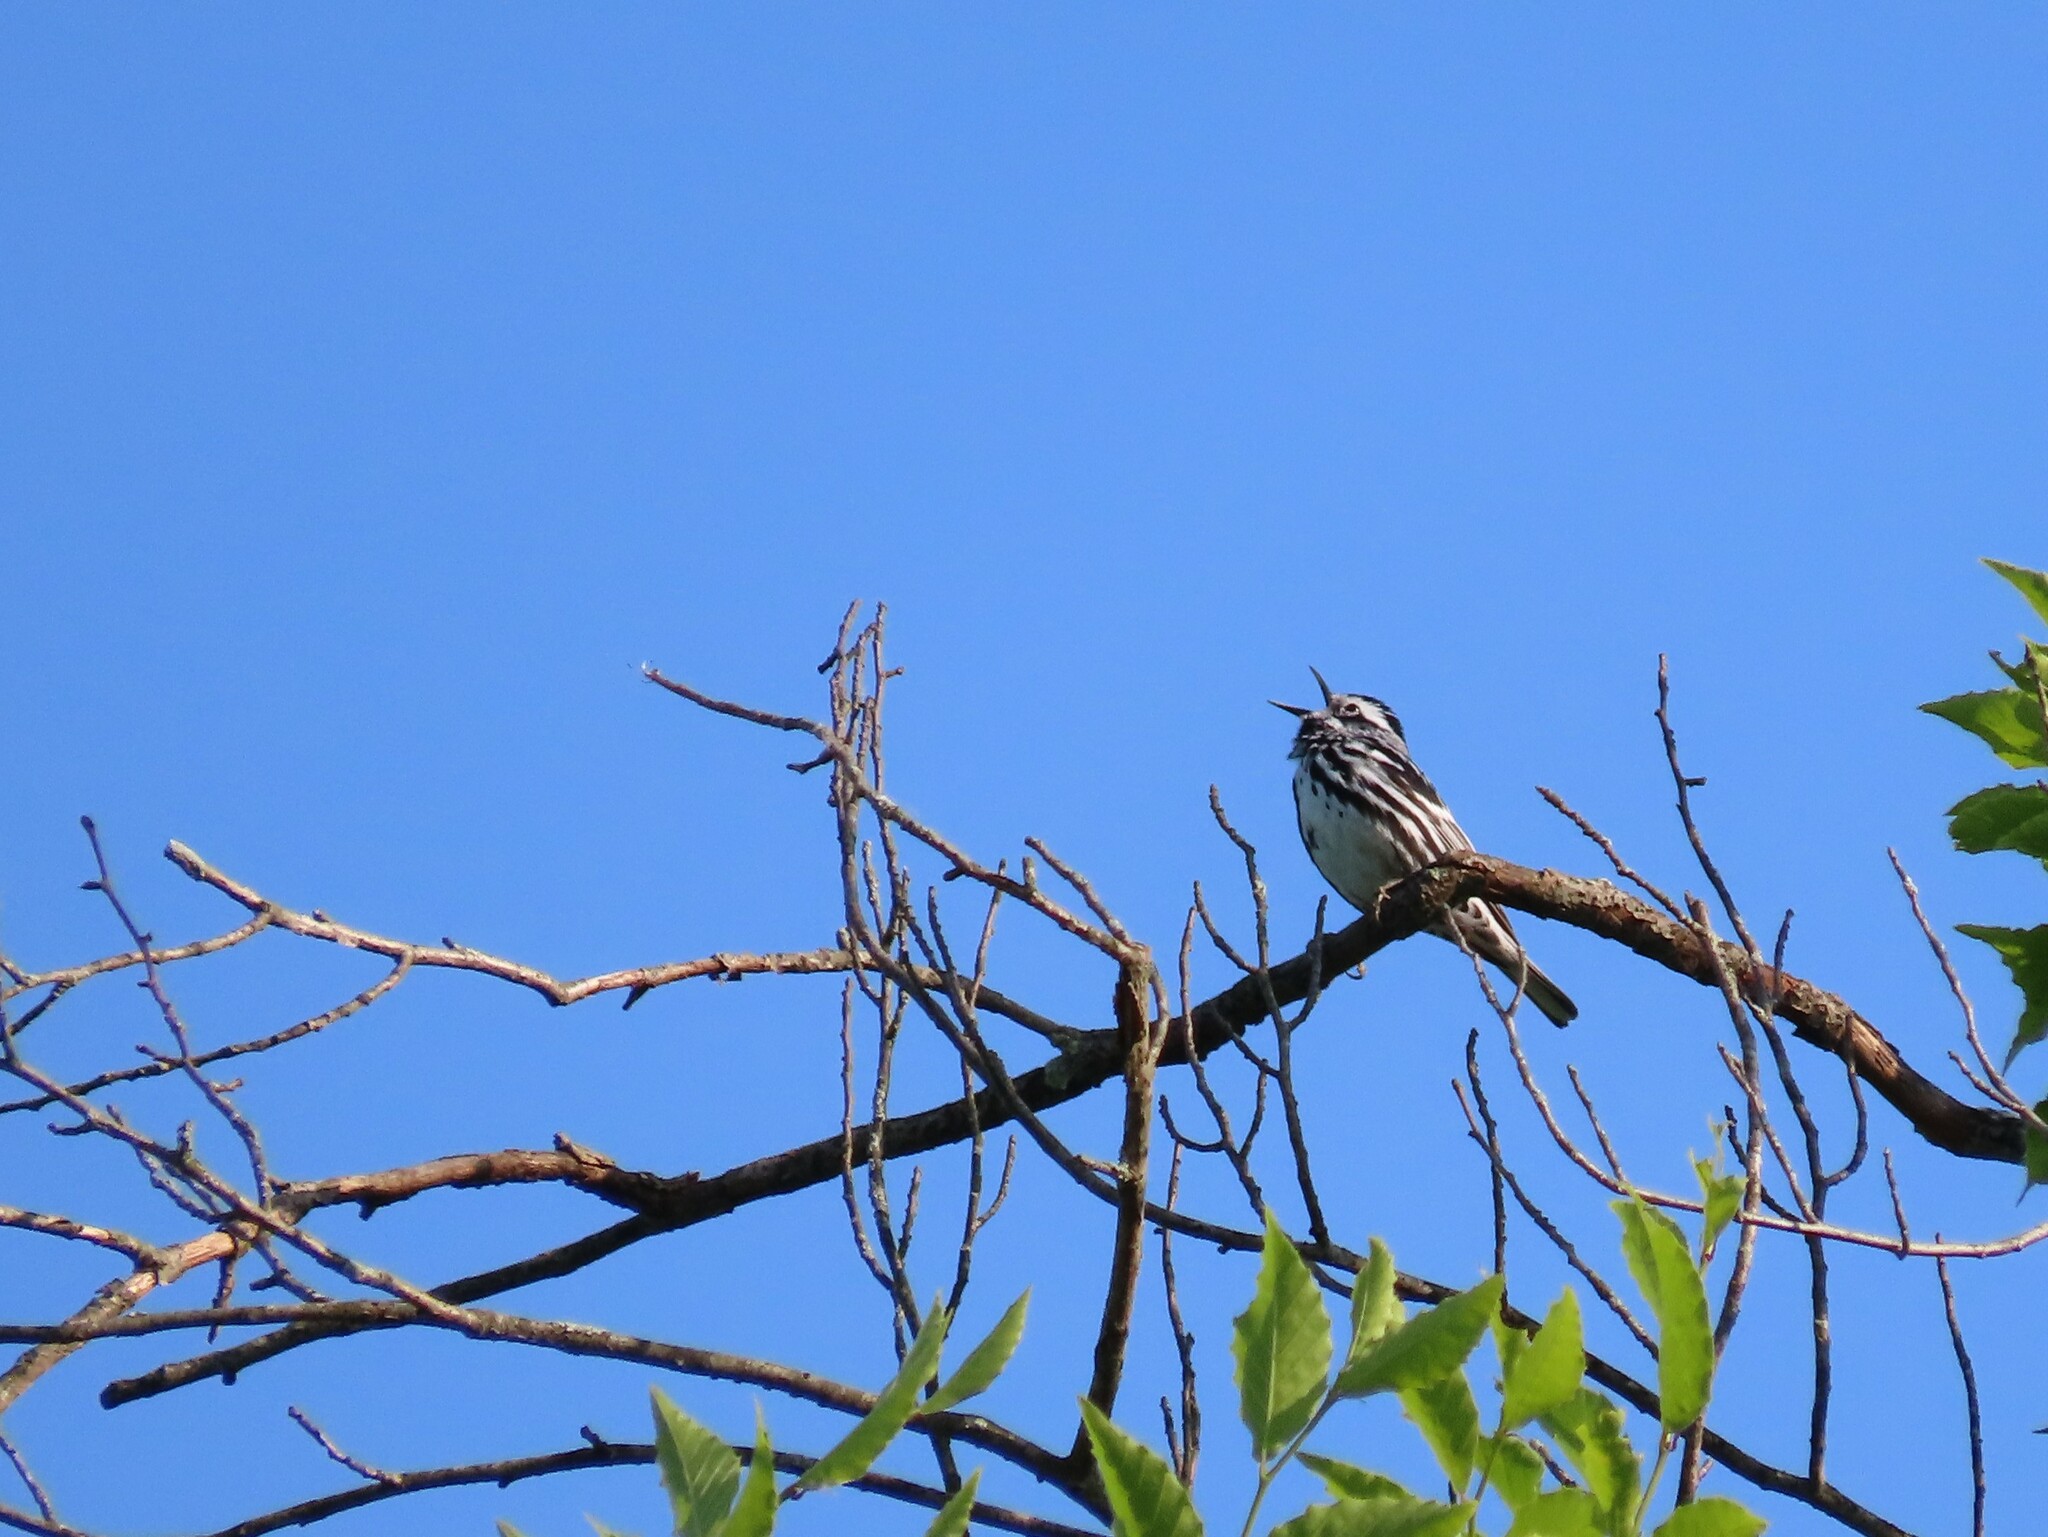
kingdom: Animalia
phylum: Chordata
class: Aves
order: Passeriformes
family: Parulidae
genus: Mniotilta
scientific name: Mniotilta varia
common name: Black-and-white warbler
